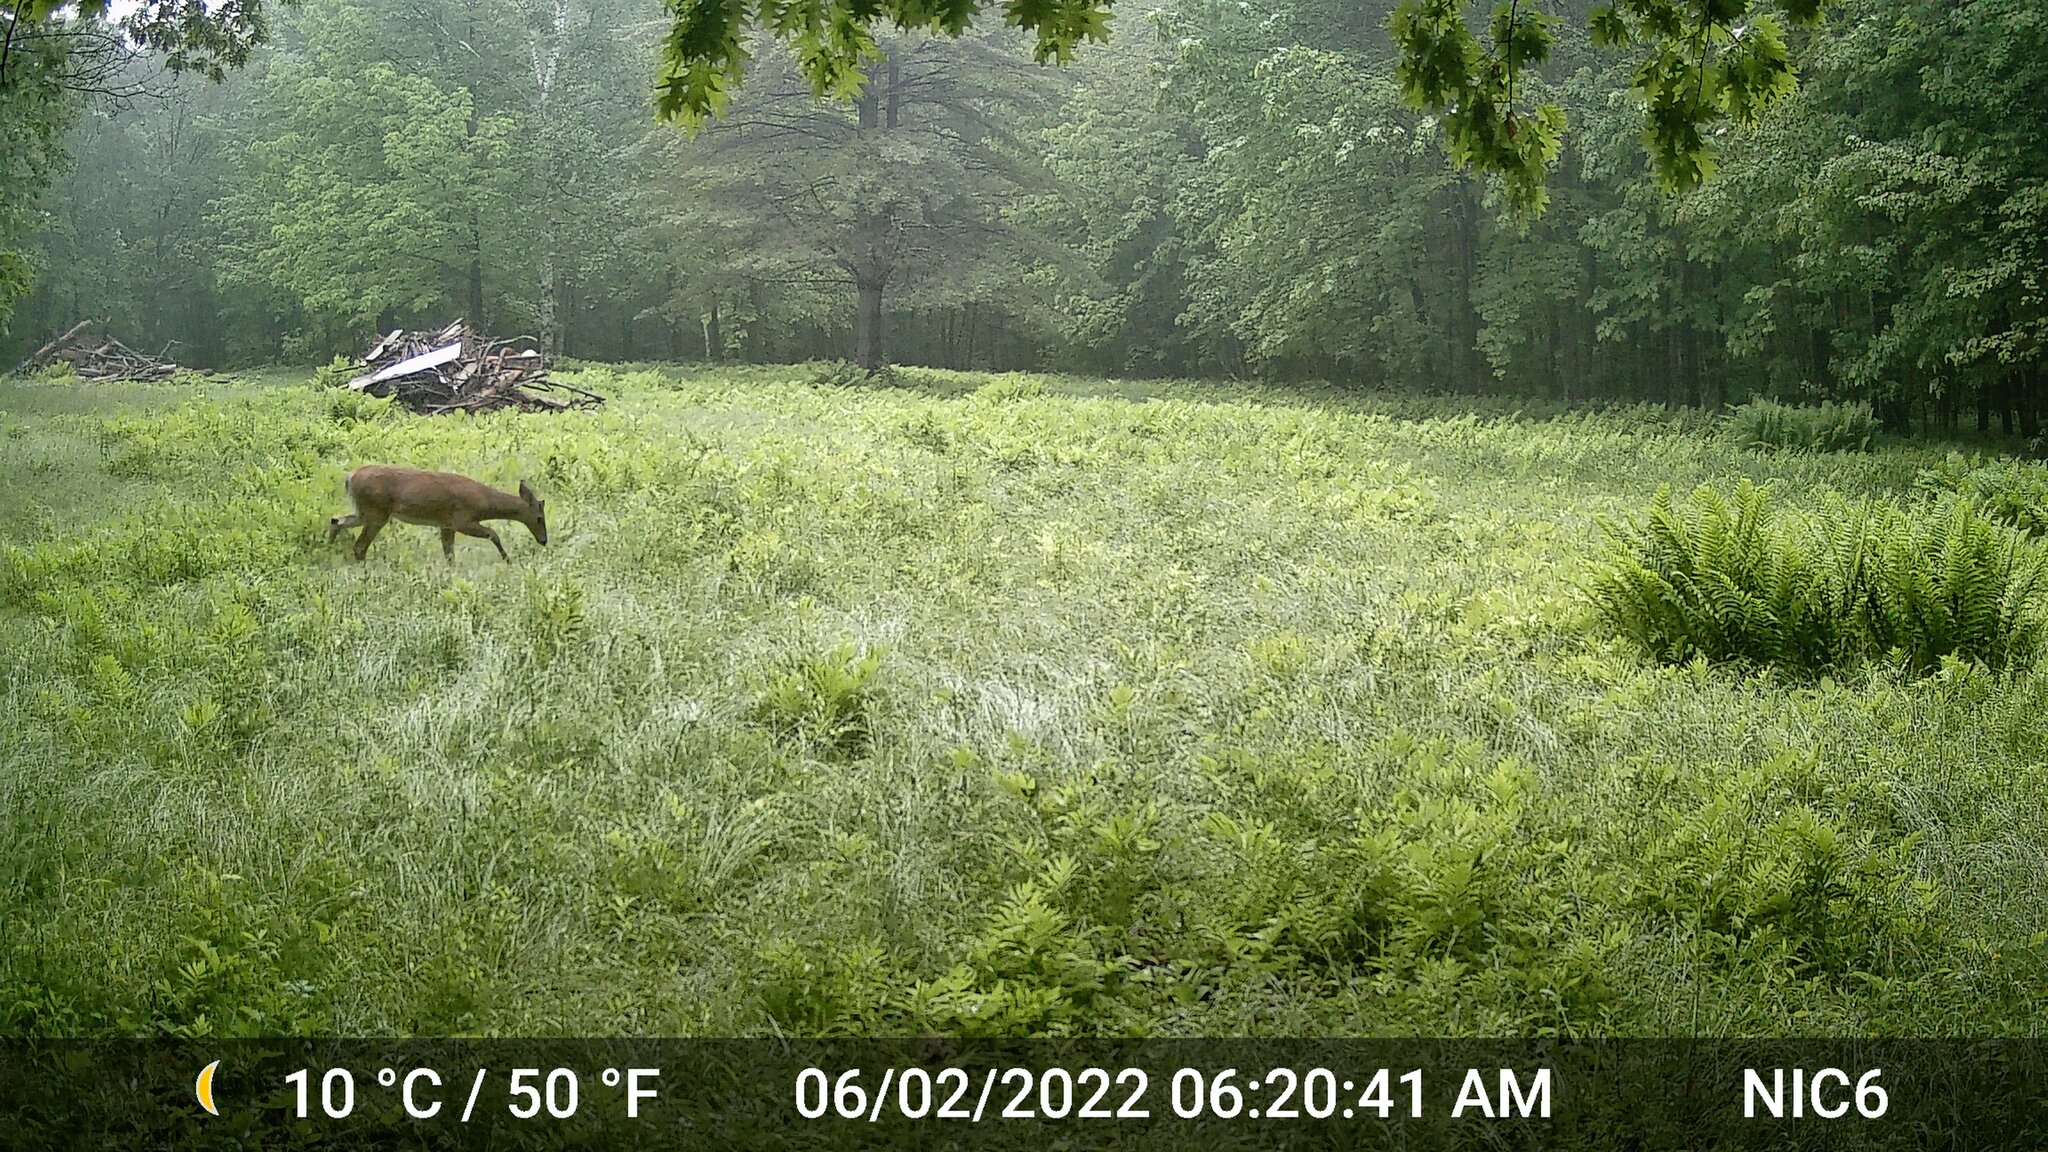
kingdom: Animalia
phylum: Chordata
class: Mammalia
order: Artiodactyla
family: Cervidae
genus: Odocoileus
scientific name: Odocoileus virginianus
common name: White-tailed deer
